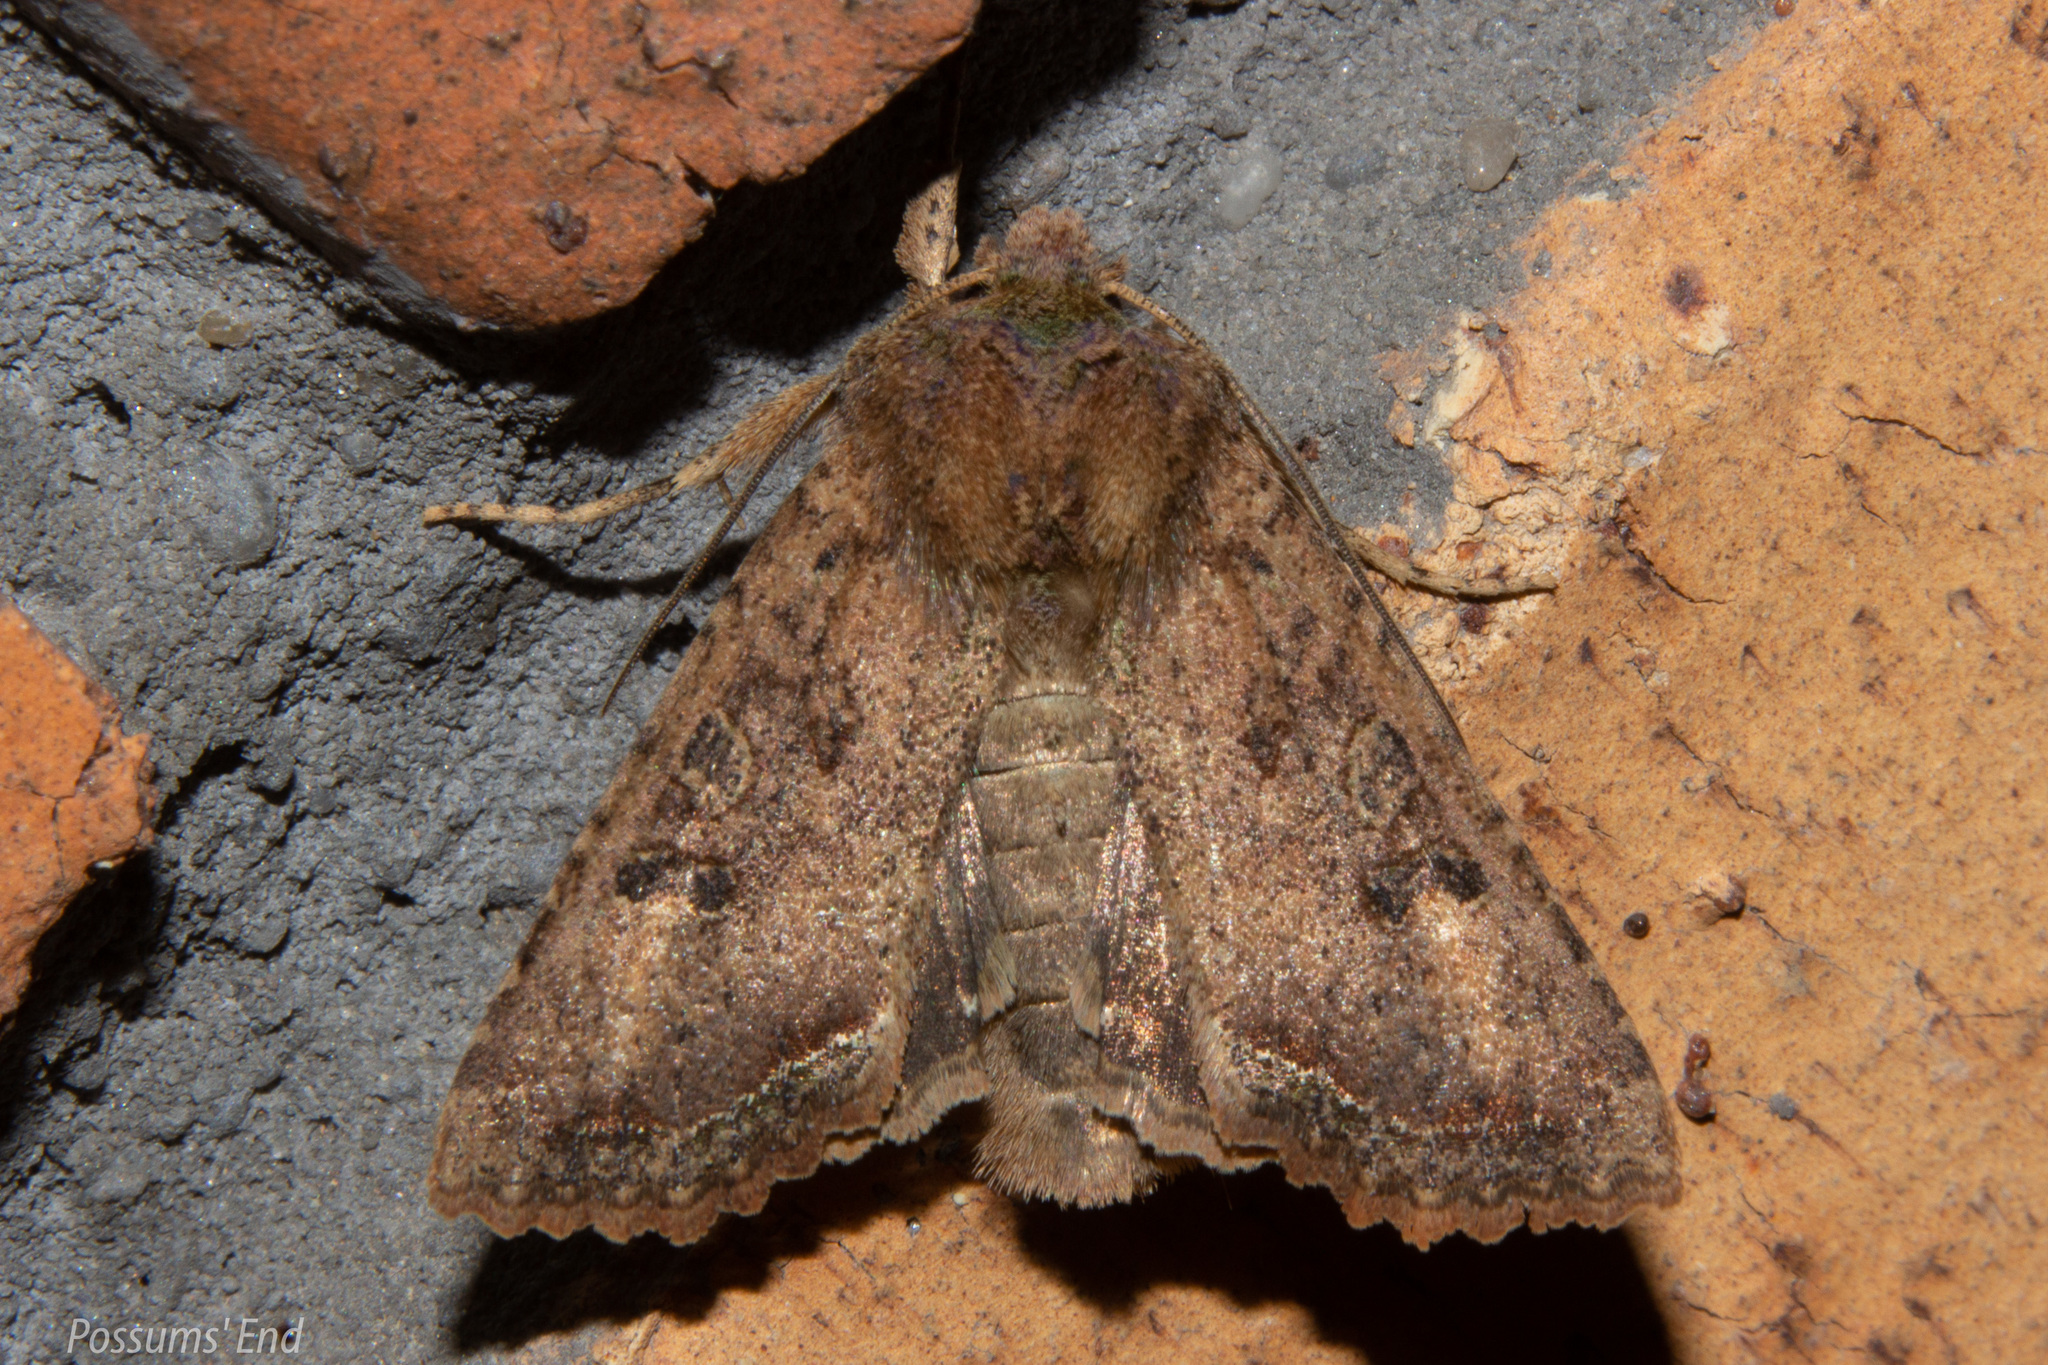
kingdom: Animalia
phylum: Arthropoda
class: Insecta
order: Lepidoptera
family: Noctuidae
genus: Meterana
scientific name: Meterana inchoata
